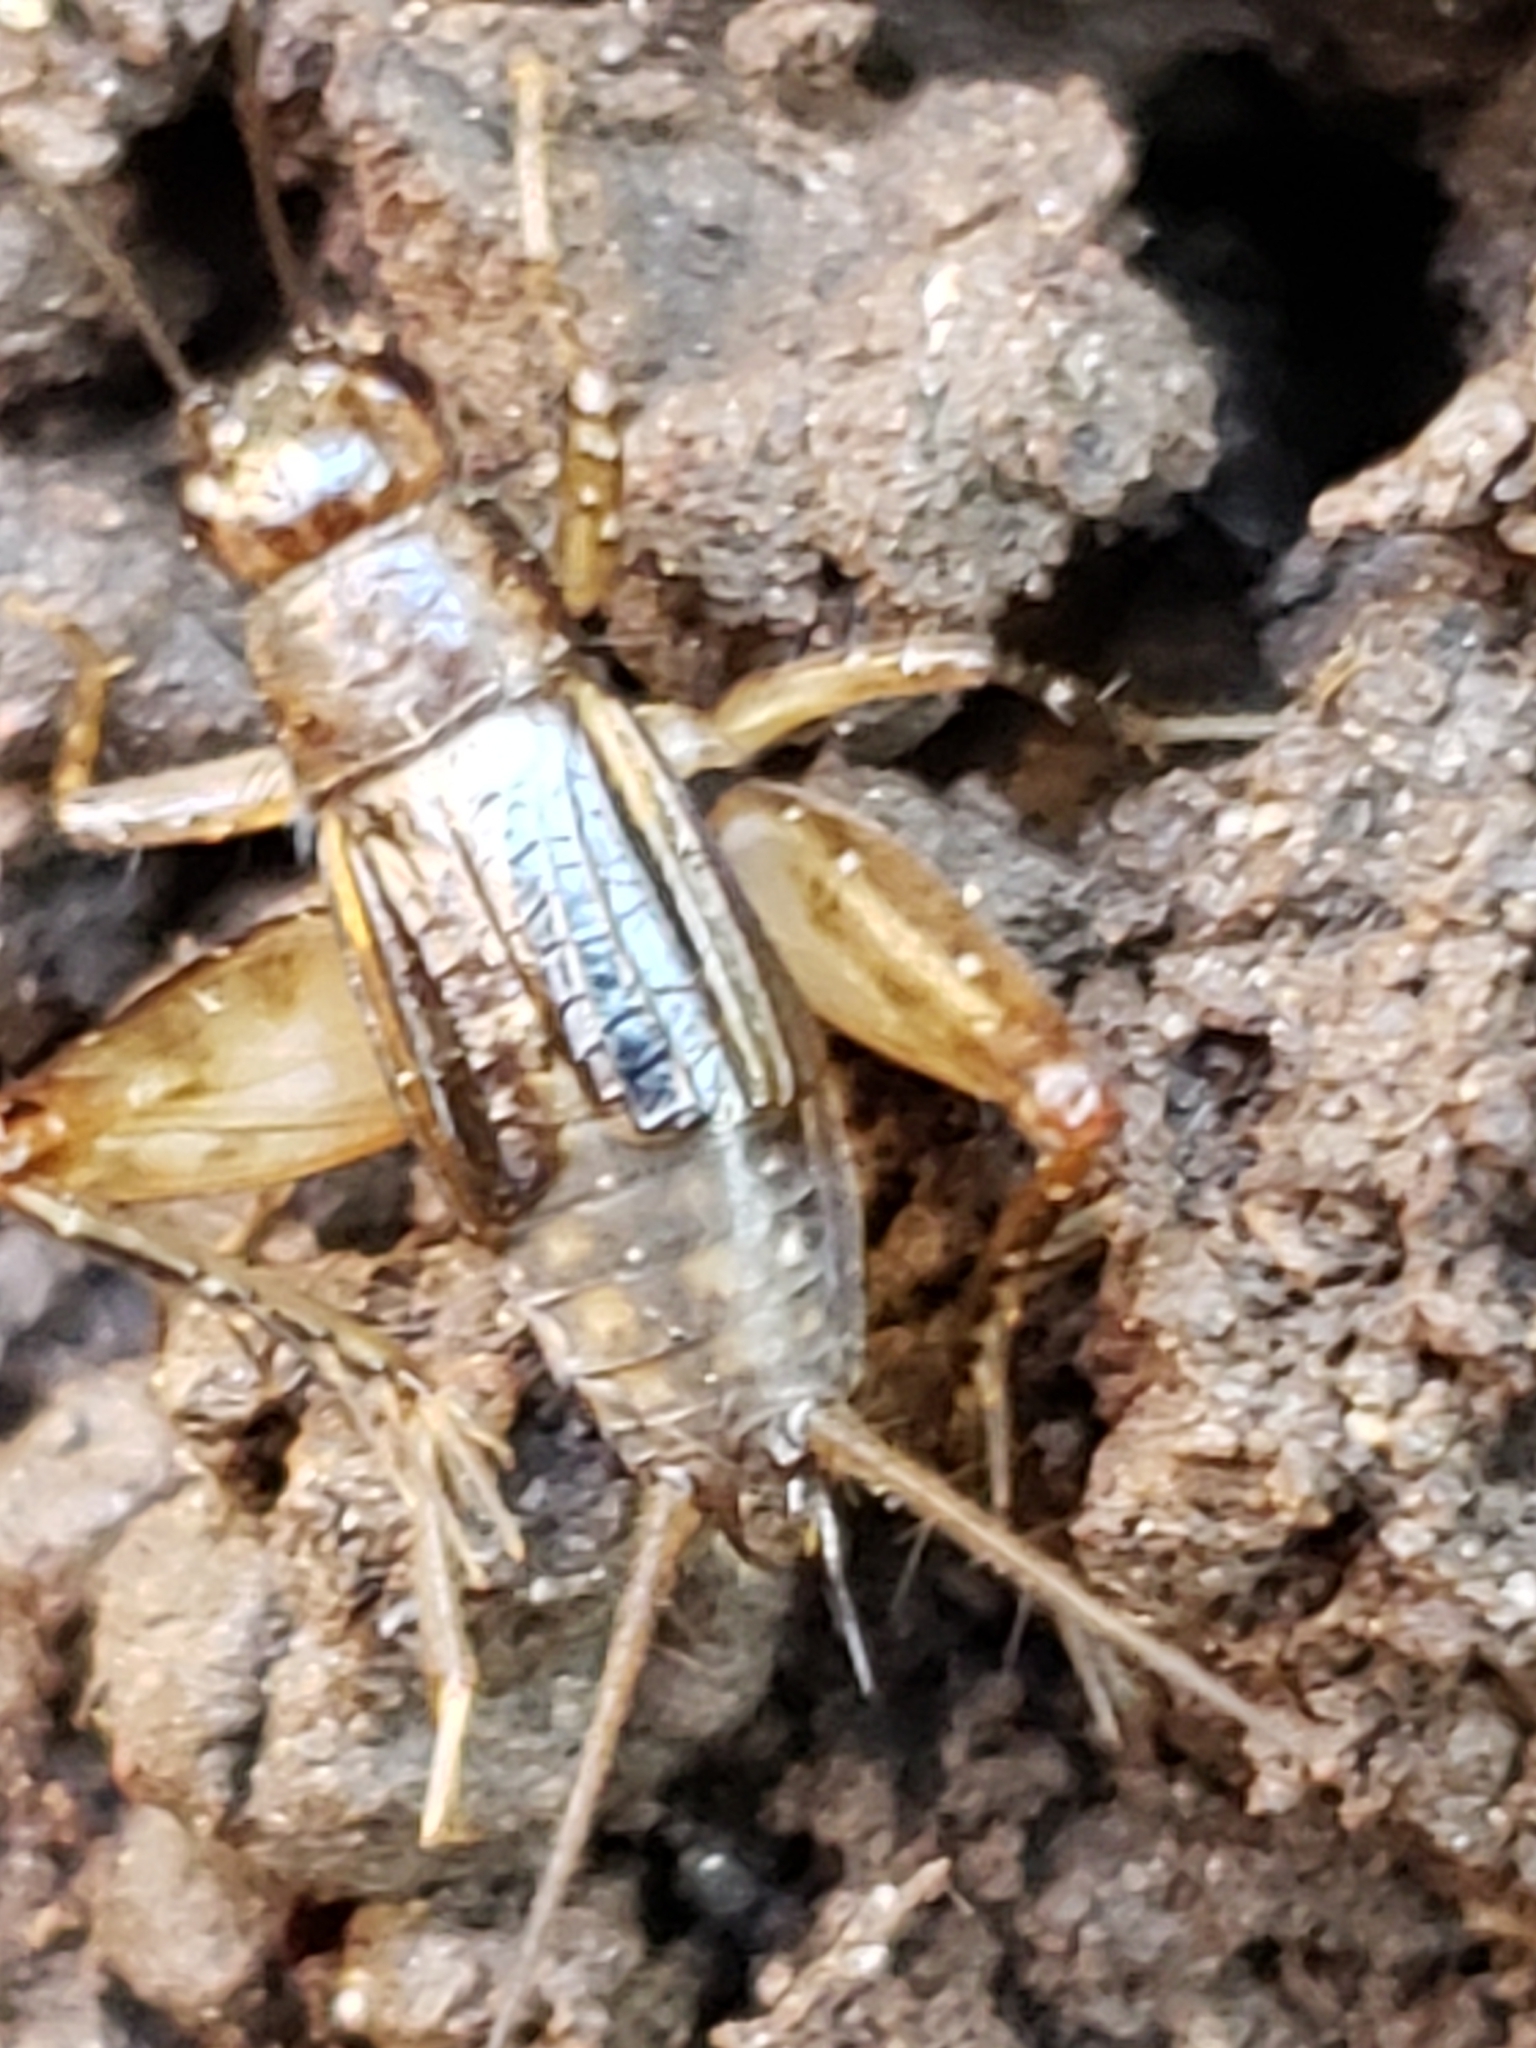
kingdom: Animalia
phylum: Arthropoda
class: Insecta
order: Orthoptera
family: Trigonidiidae
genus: Eunemobius
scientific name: Eunemobius carolinus
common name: Carolina ground cricket
